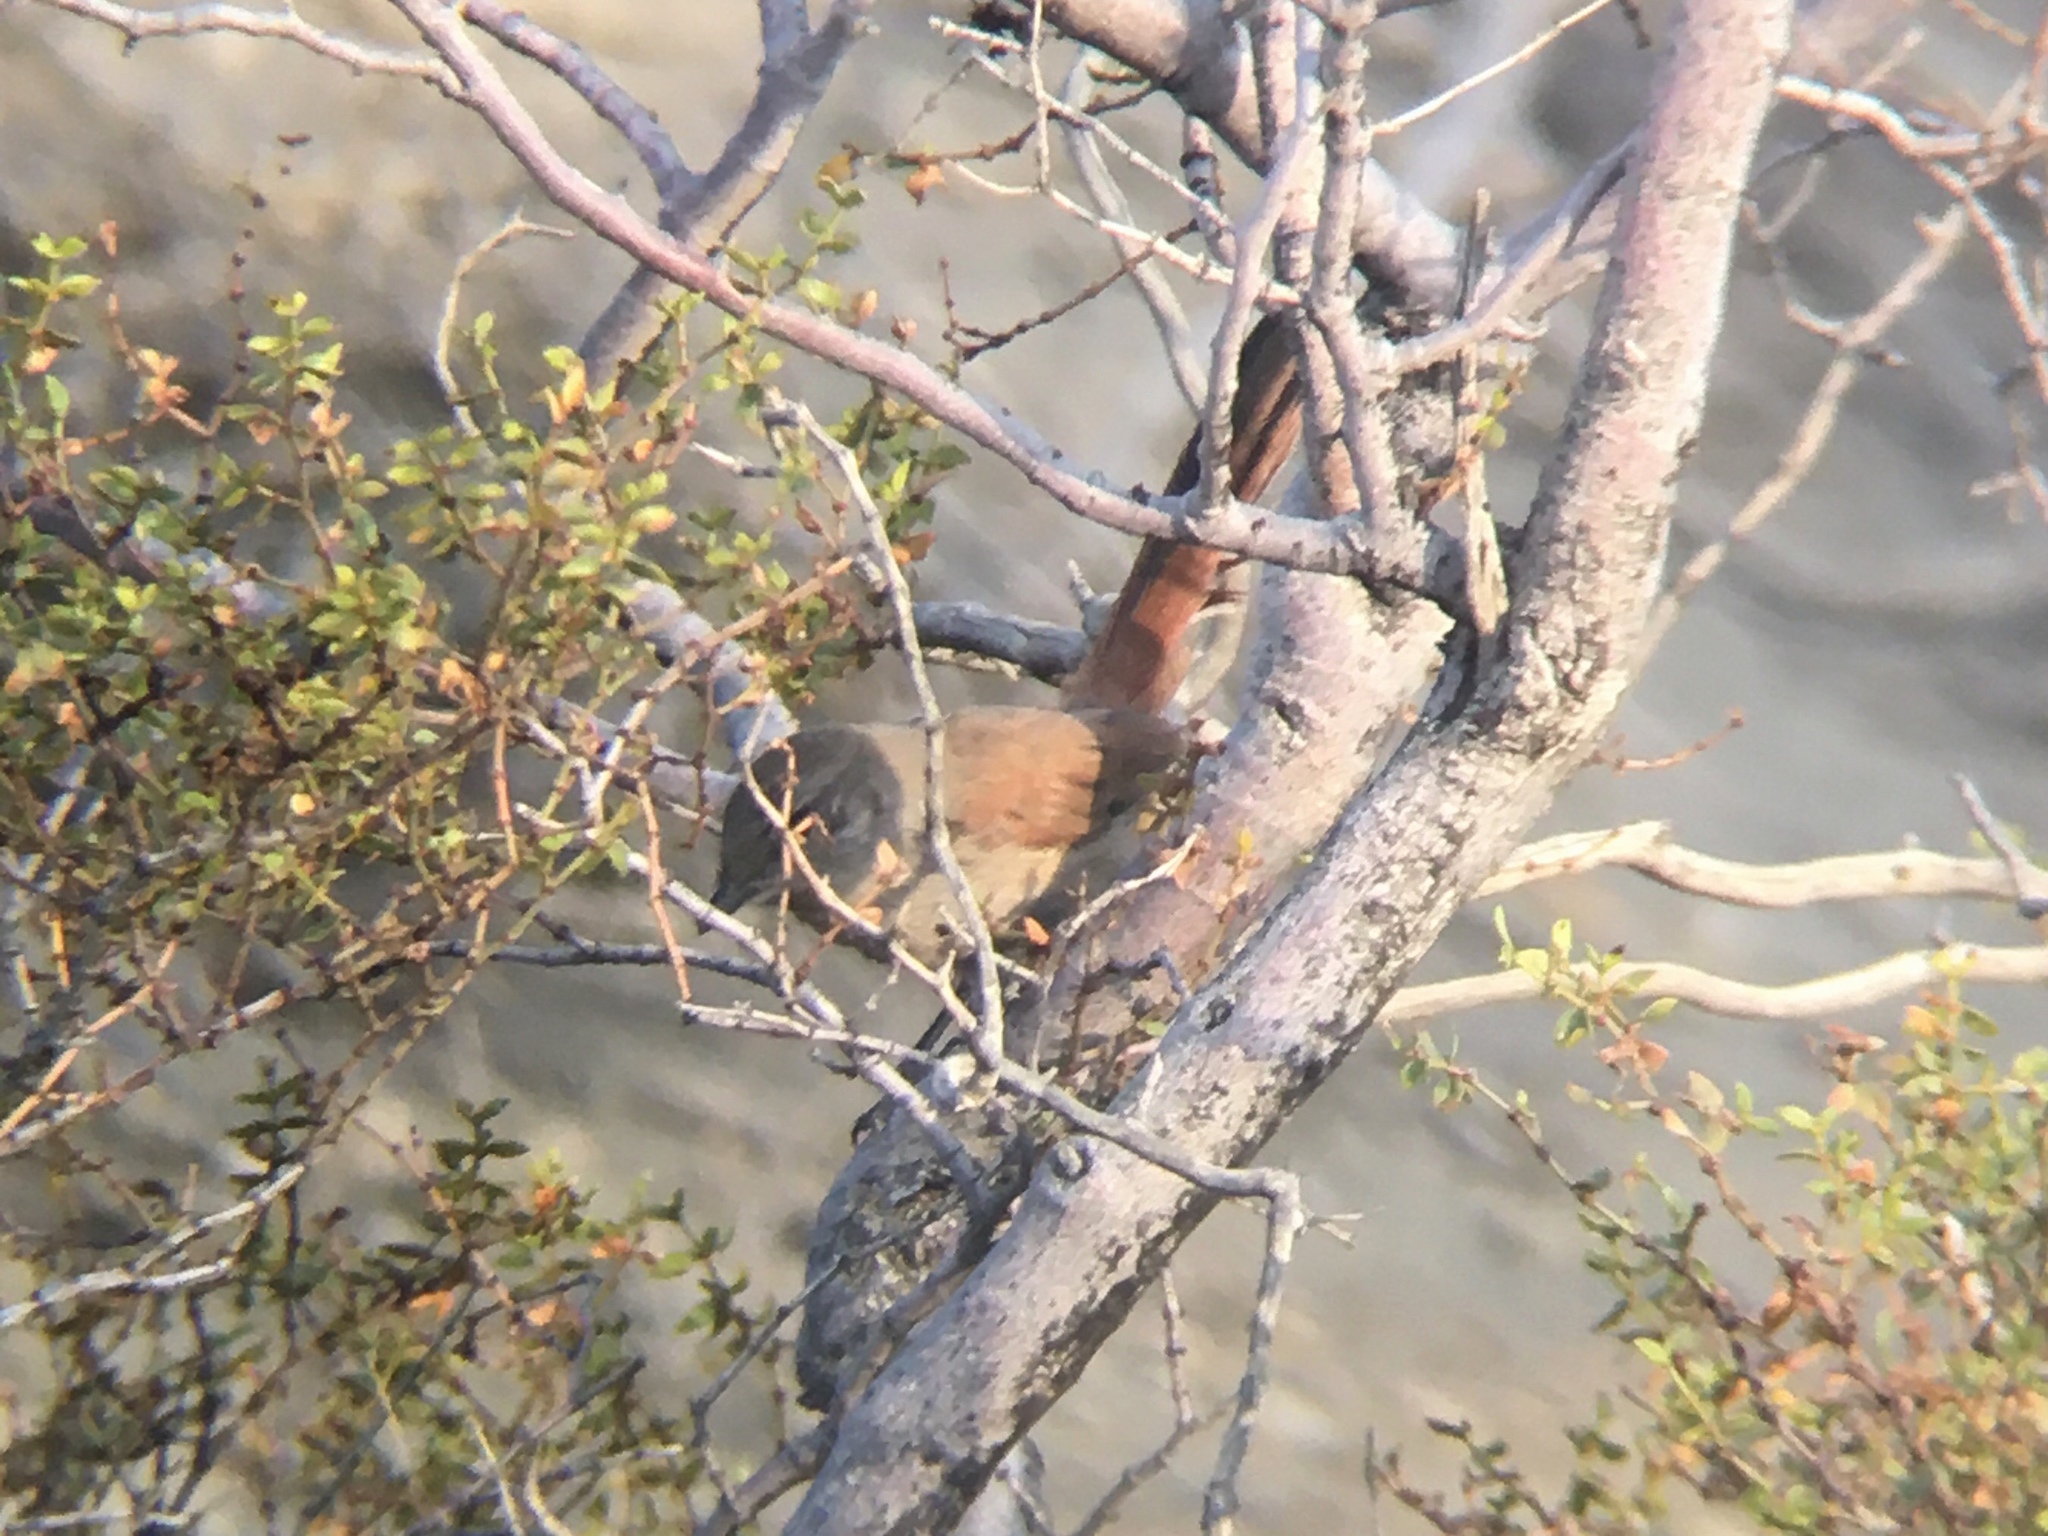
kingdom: Animalia
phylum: Chordata
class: Aves
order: Passeriformes
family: Furnariidae
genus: Asthenes
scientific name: Asthenes steinbachi
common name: Steinbach's canastero
